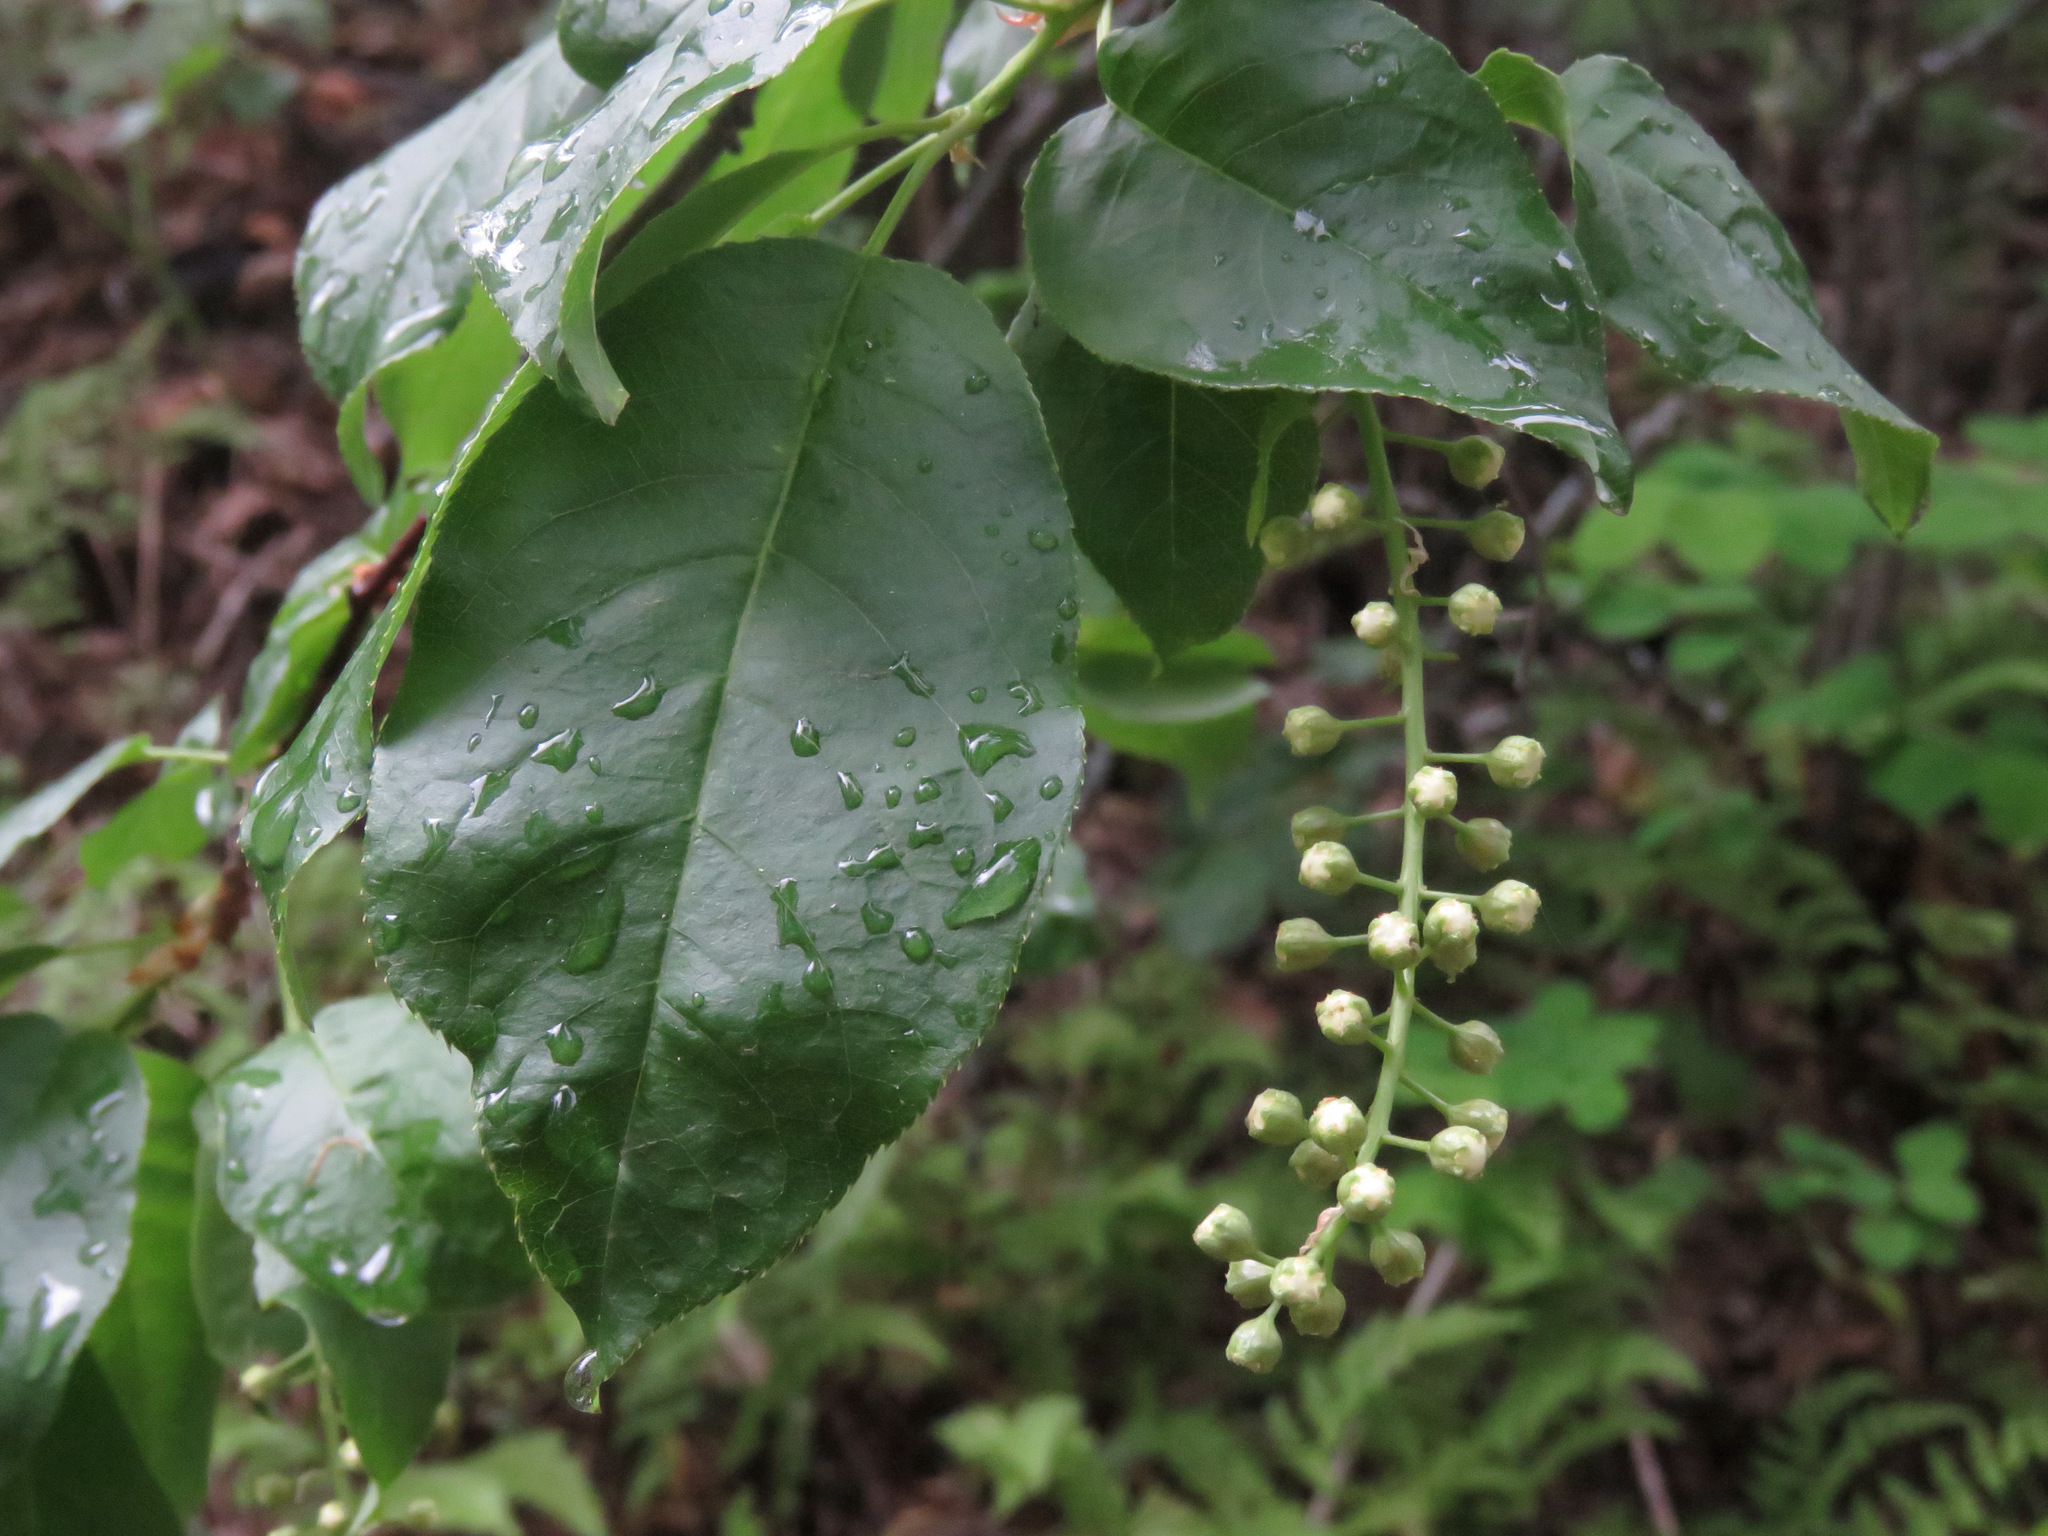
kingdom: Plantae
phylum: Tracheophyta
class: Magnoliopsida
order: Rosales
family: Rosaceae
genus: Prunus
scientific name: Prunus virginiana
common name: Chokecherry
